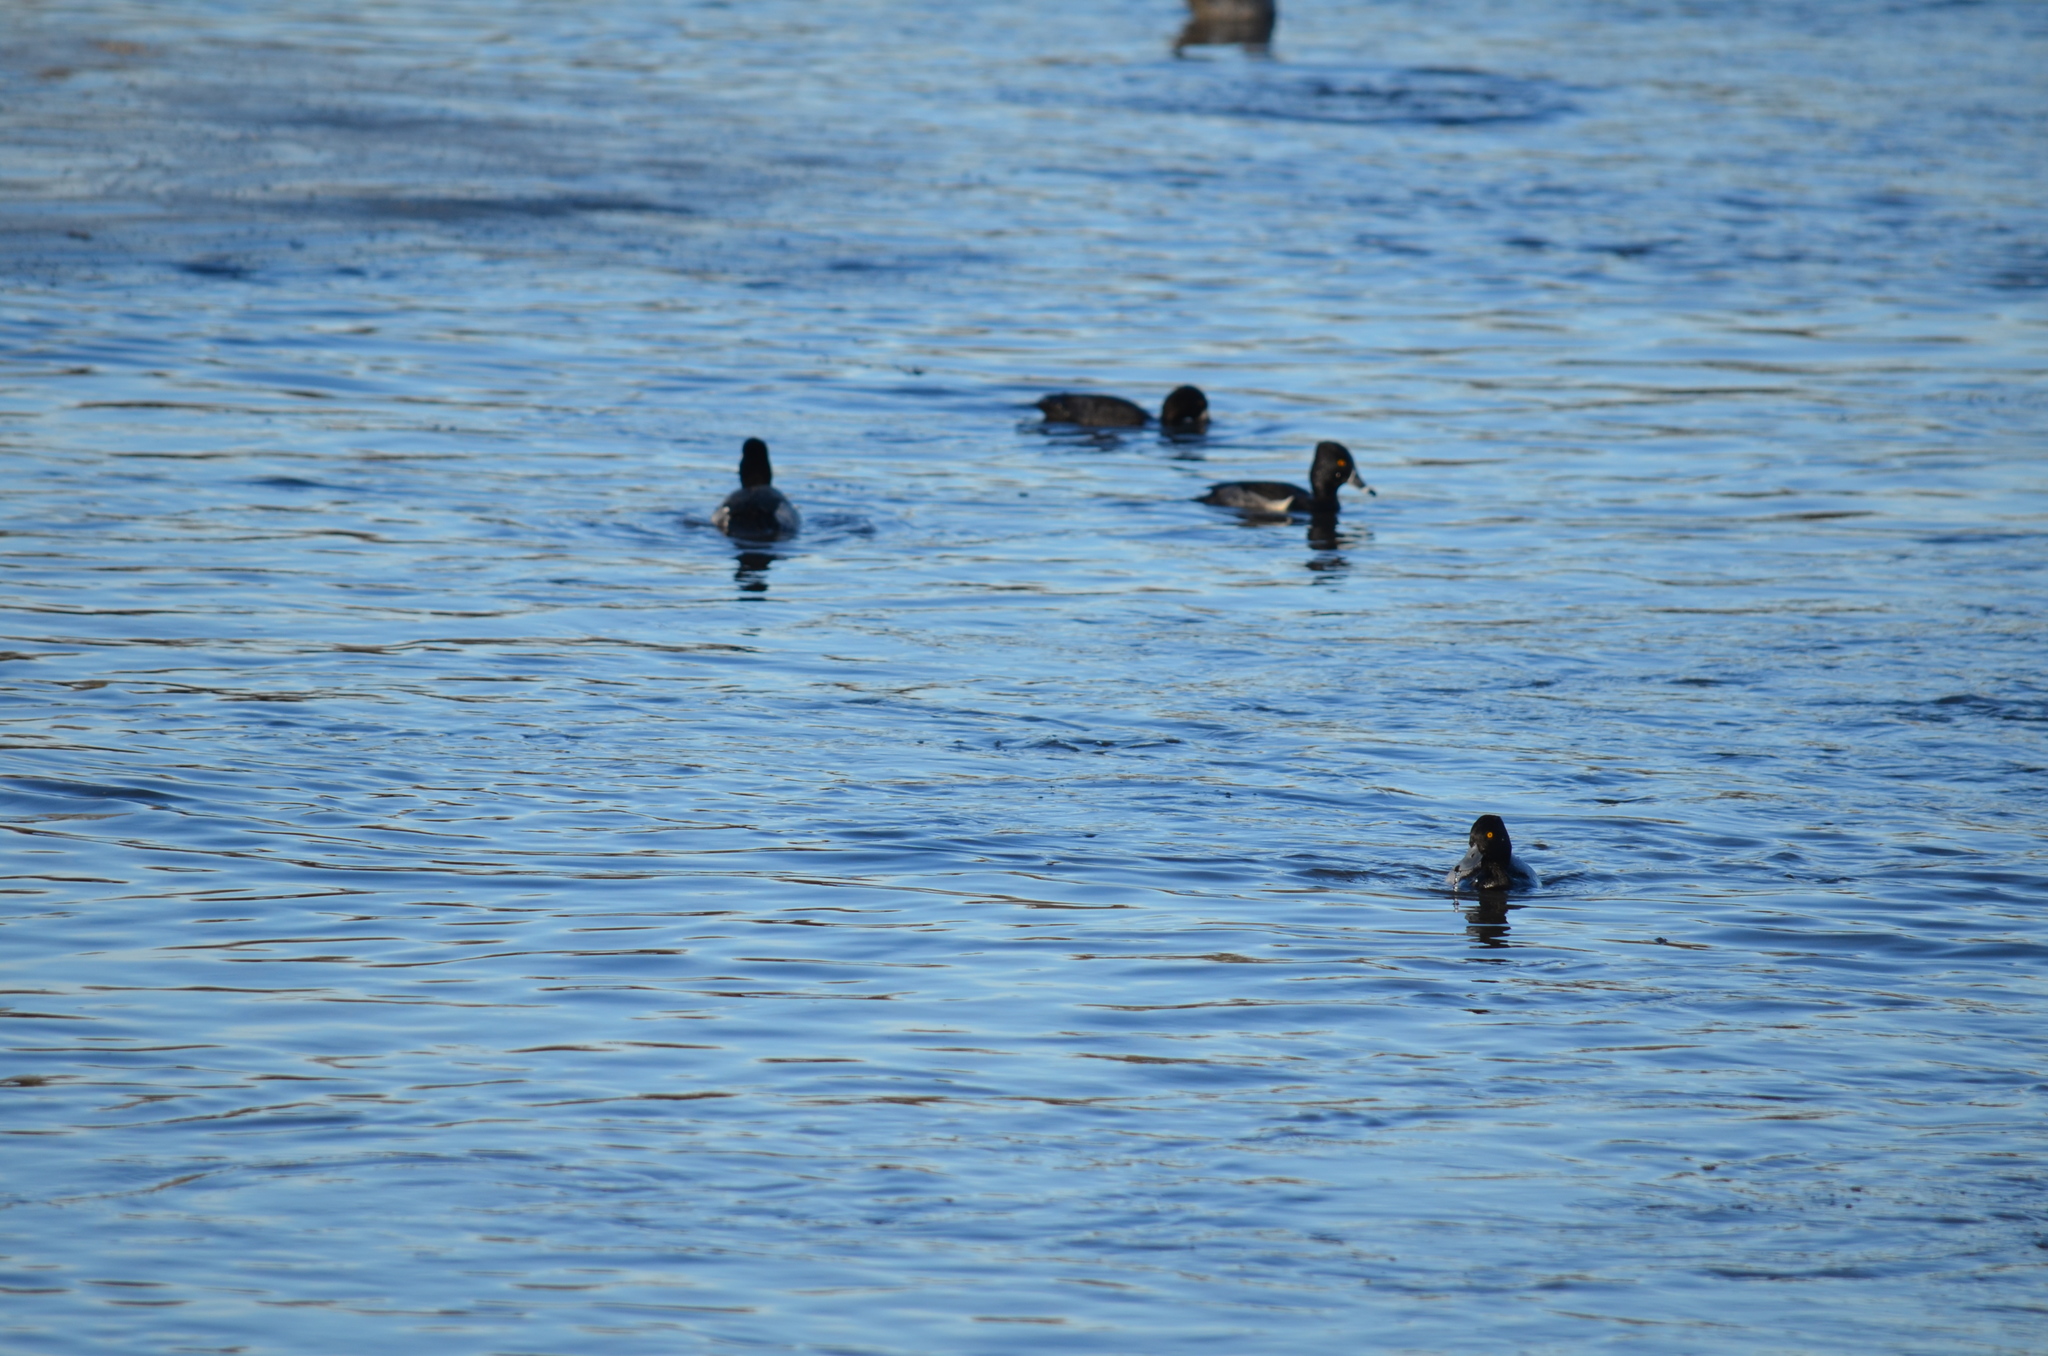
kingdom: Animalia
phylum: Chordata
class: Aves
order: Anseriformes
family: Anatidae
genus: Aythya
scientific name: Aythya collaris
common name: Ring-necked duck
